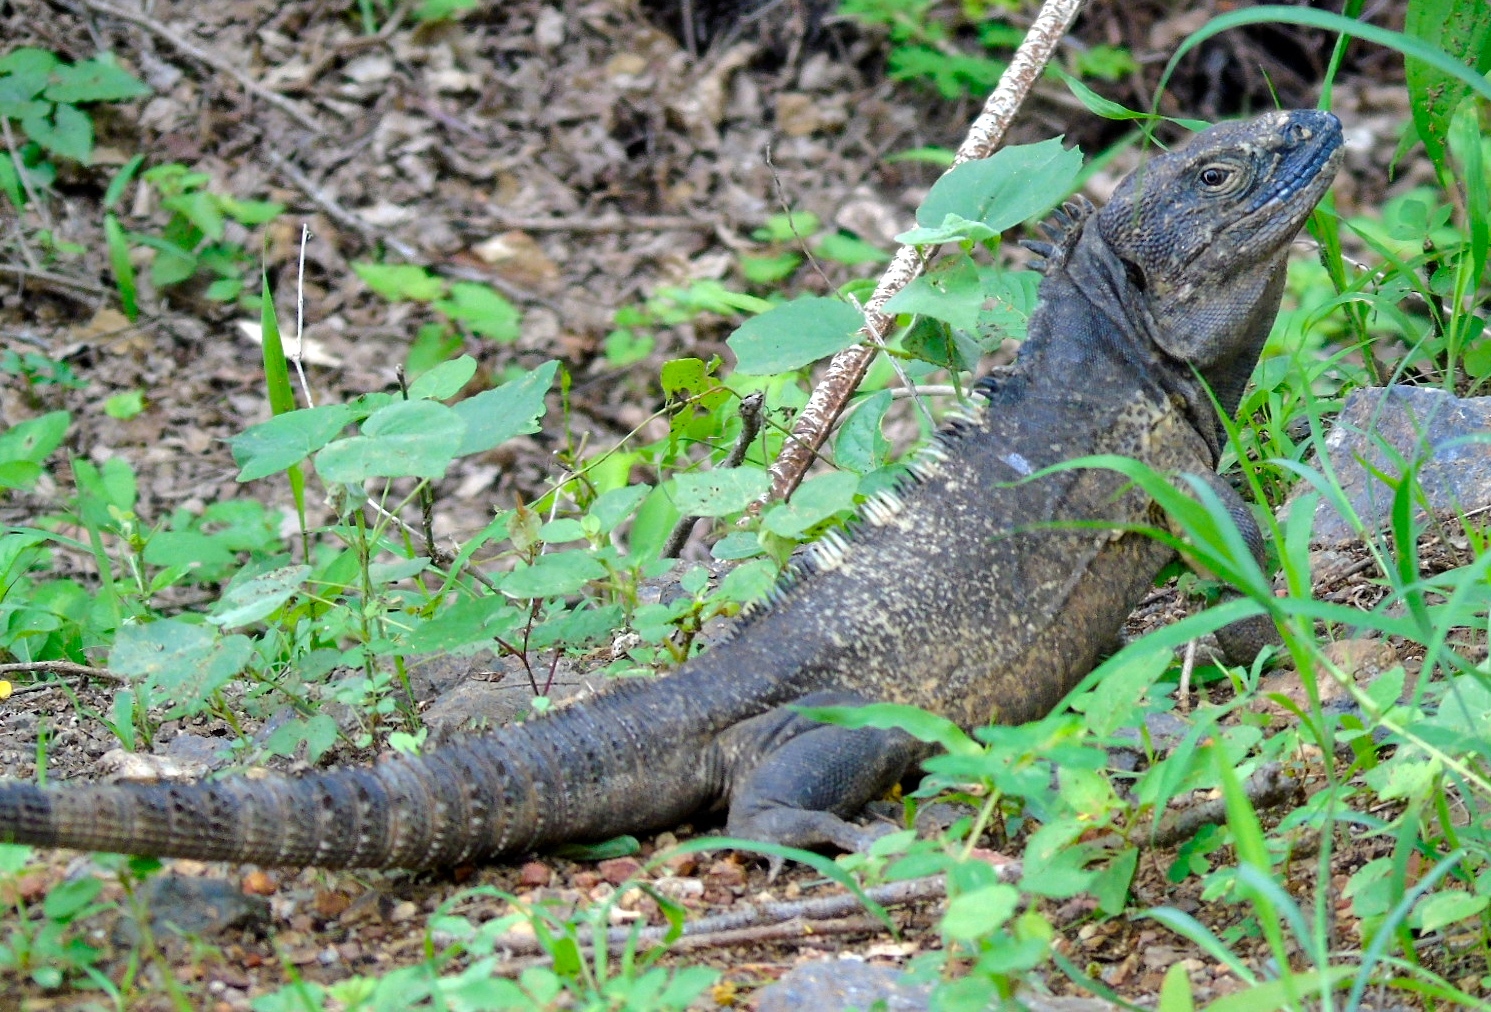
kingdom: Animalia
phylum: Chordata
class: Squamata
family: Iguanidae
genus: Ctenosaura
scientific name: Ctenosaura pectinata
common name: Guerreran spiny-tailed iguana
